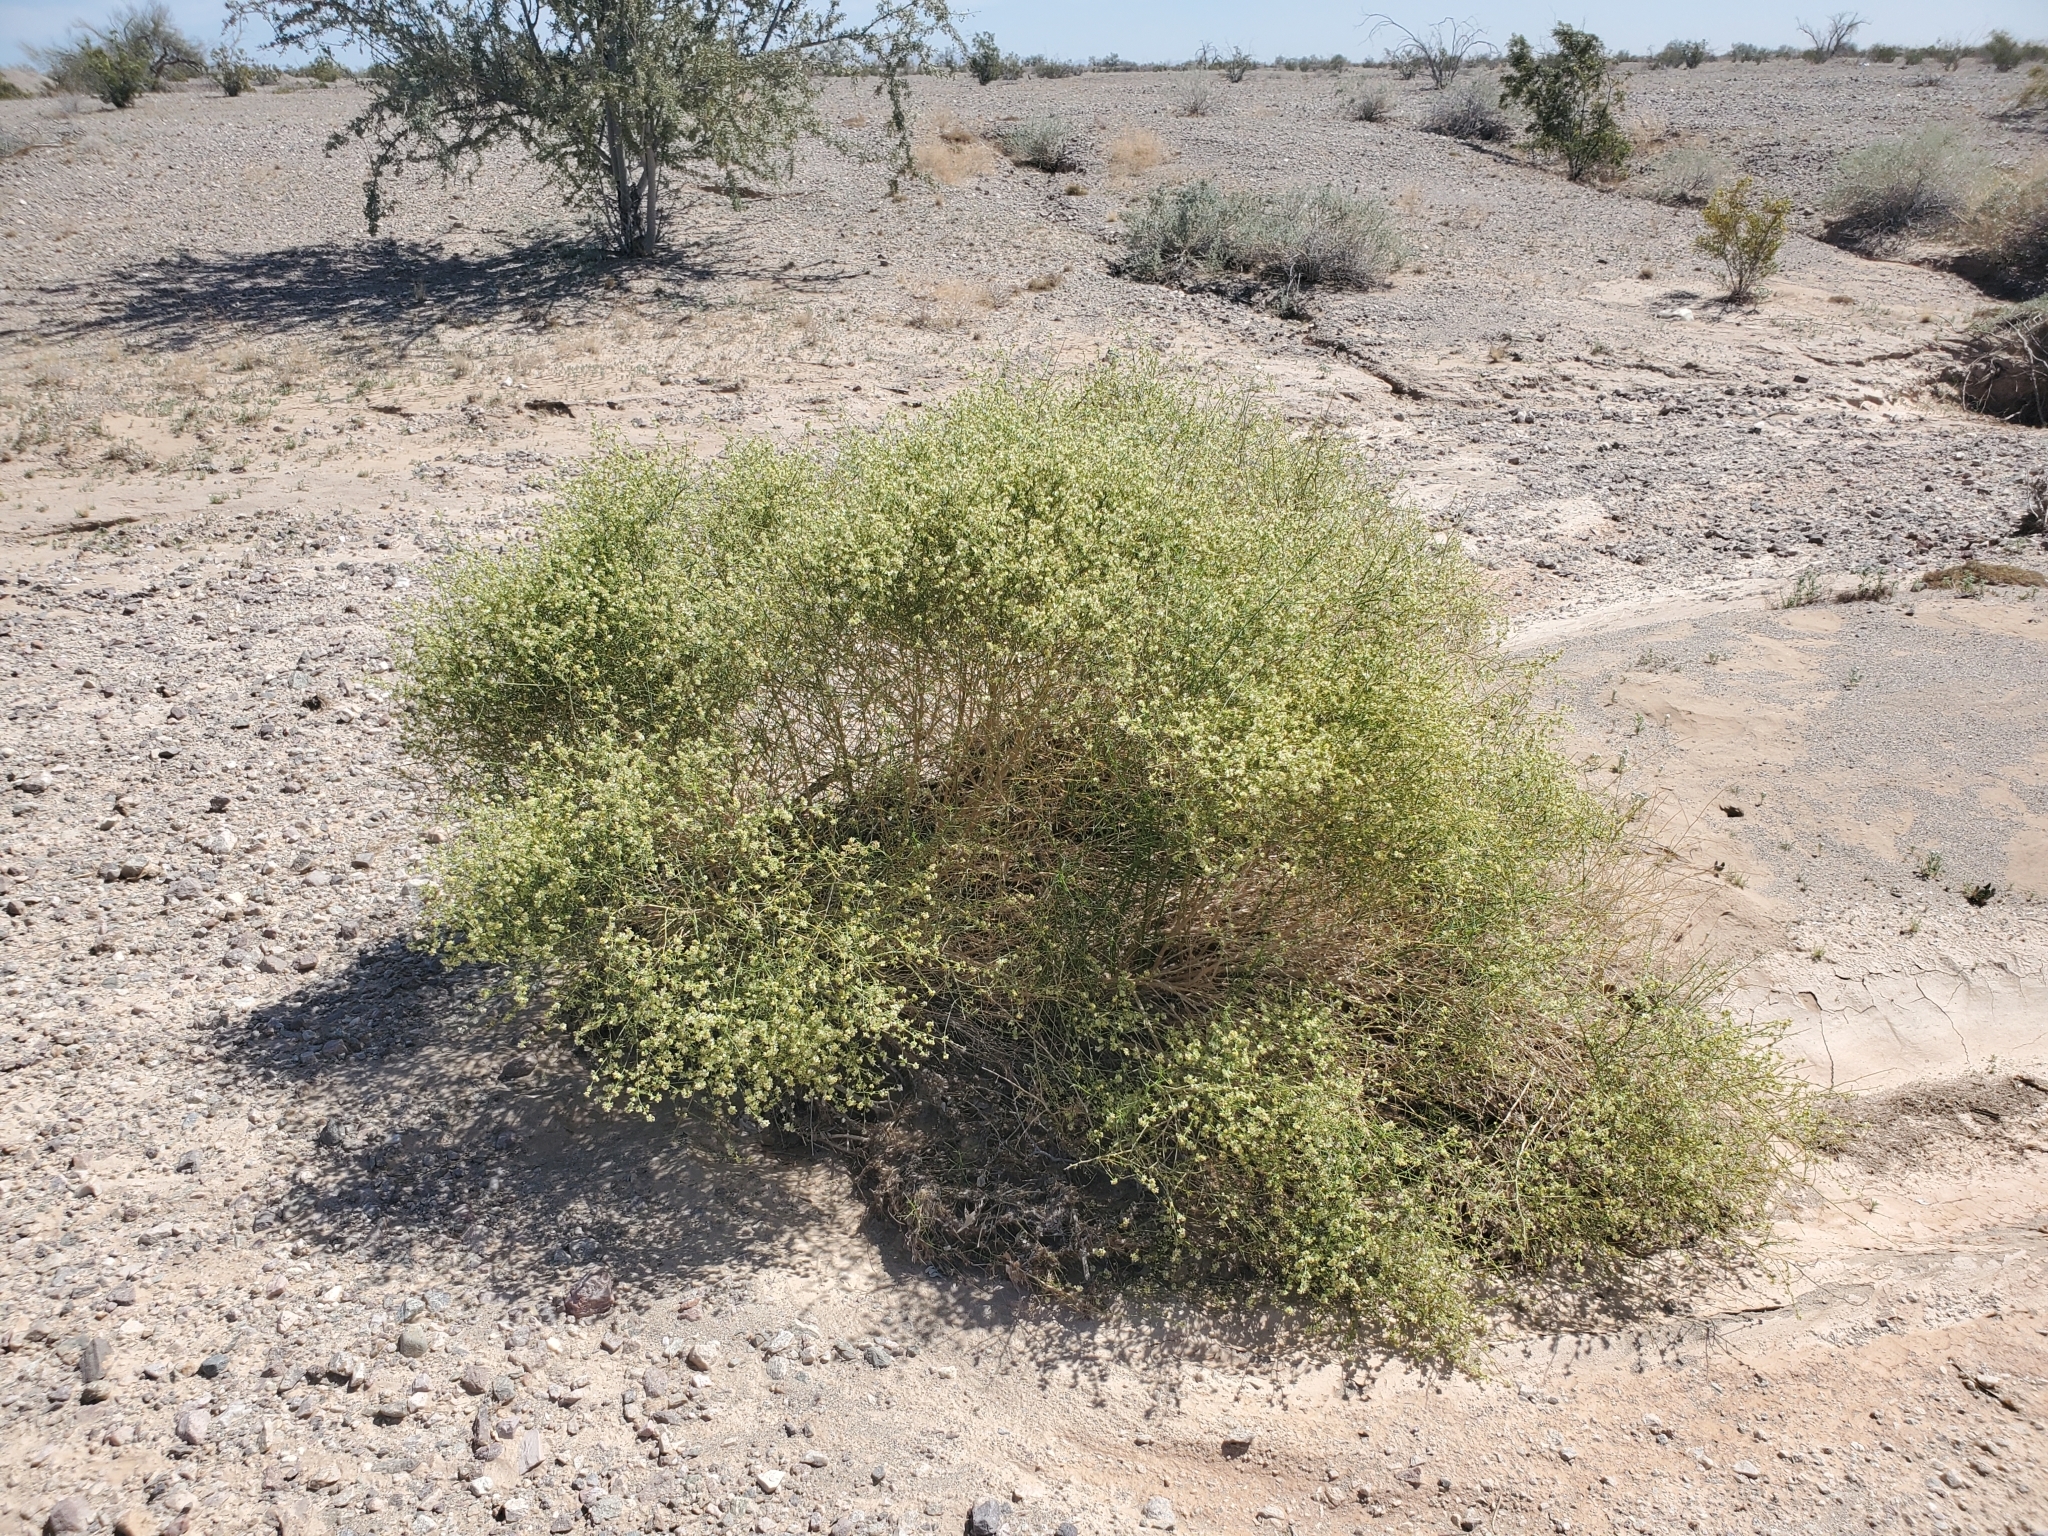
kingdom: Plantae
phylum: Tracheophyta
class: Magnoliopsida
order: Asterales
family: Asteraceae
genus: Ambrosia
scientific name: Ambrosia salsola
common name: Burrobrush
